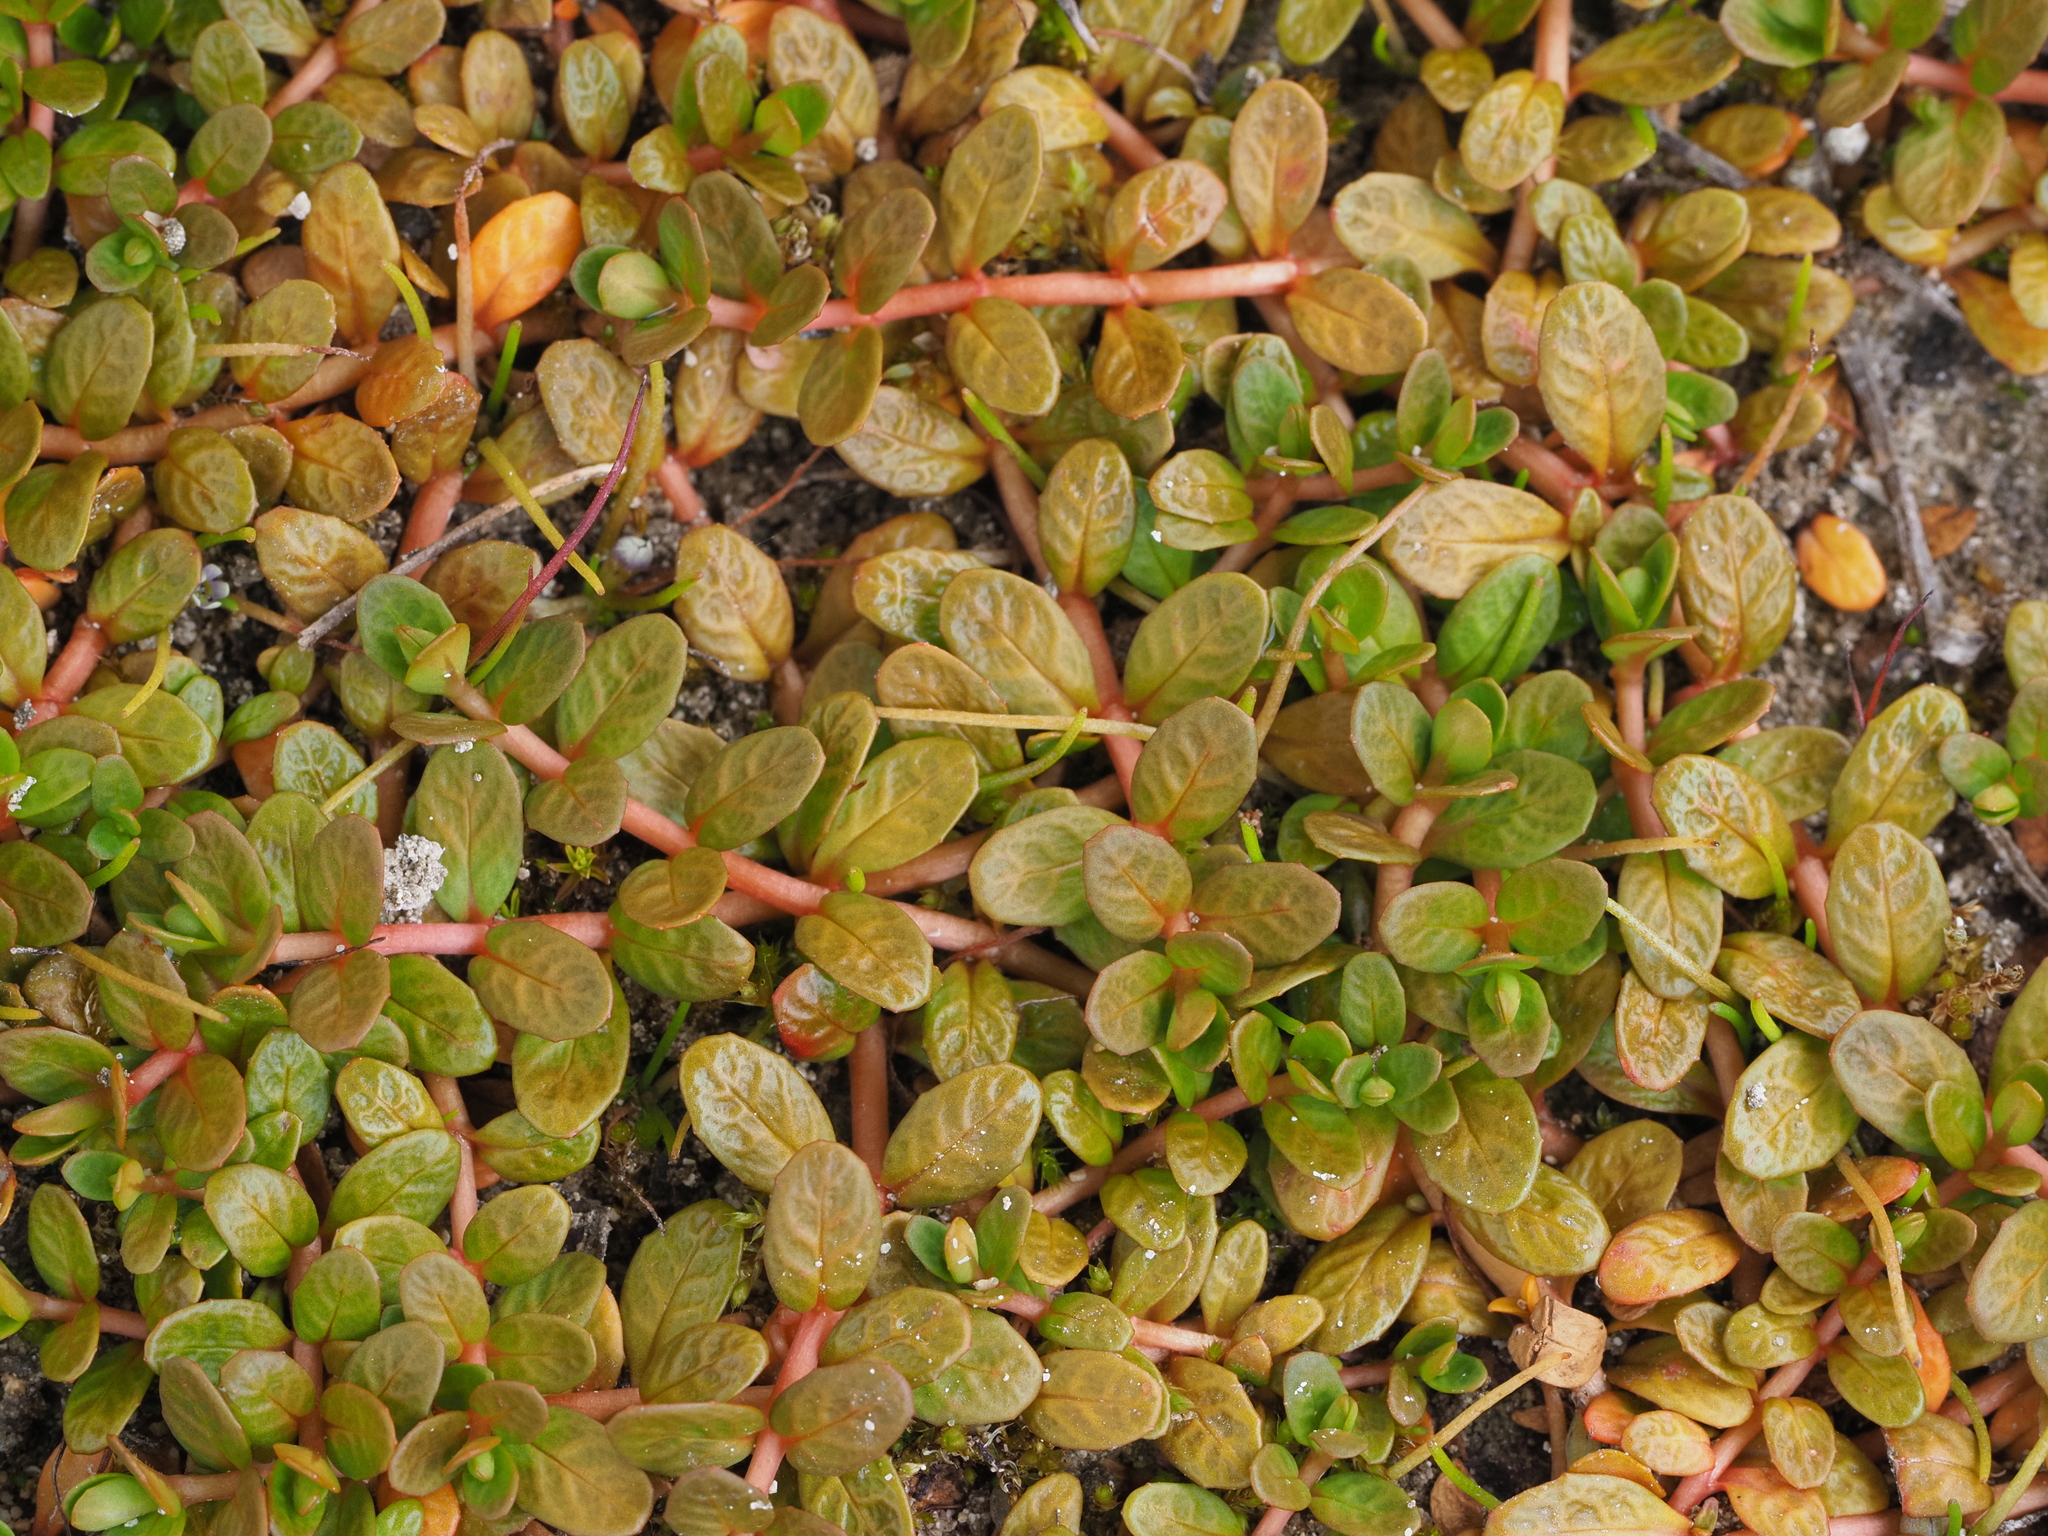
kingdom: Plantae
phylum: Tracheophyta
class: Magnoliopsida
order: Myrtales
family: Onagraceae
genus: Epilobium
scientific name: Epilobium angustum
